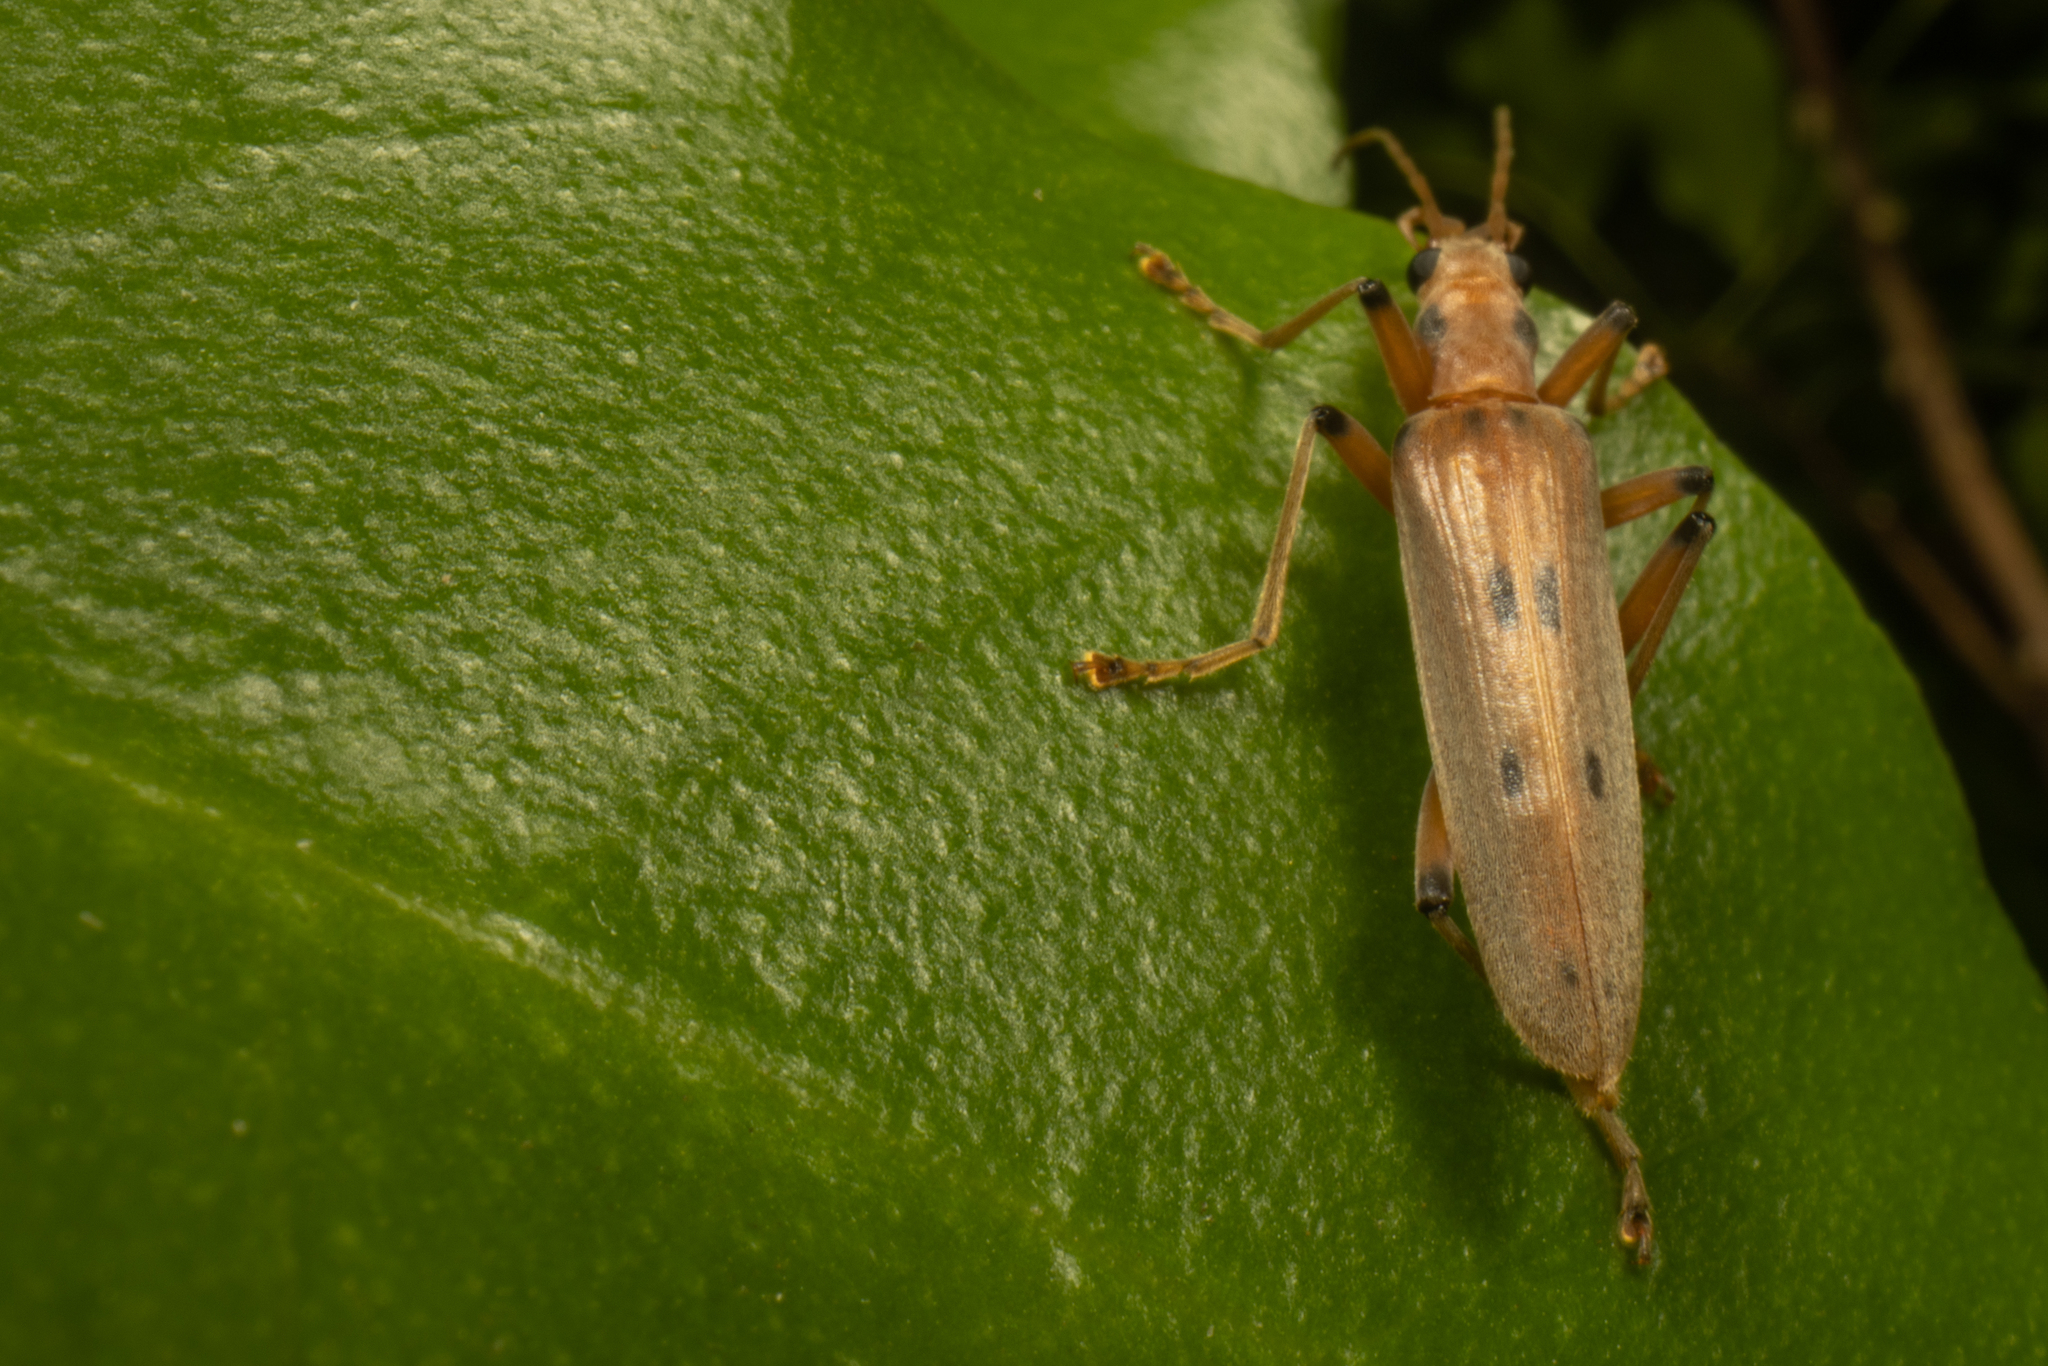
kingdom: Animalia
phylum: Arthropoda
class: Insecta
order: Coleoptera
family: Oedemeridae
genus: Parisopalpus
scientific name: Parisopalpus
